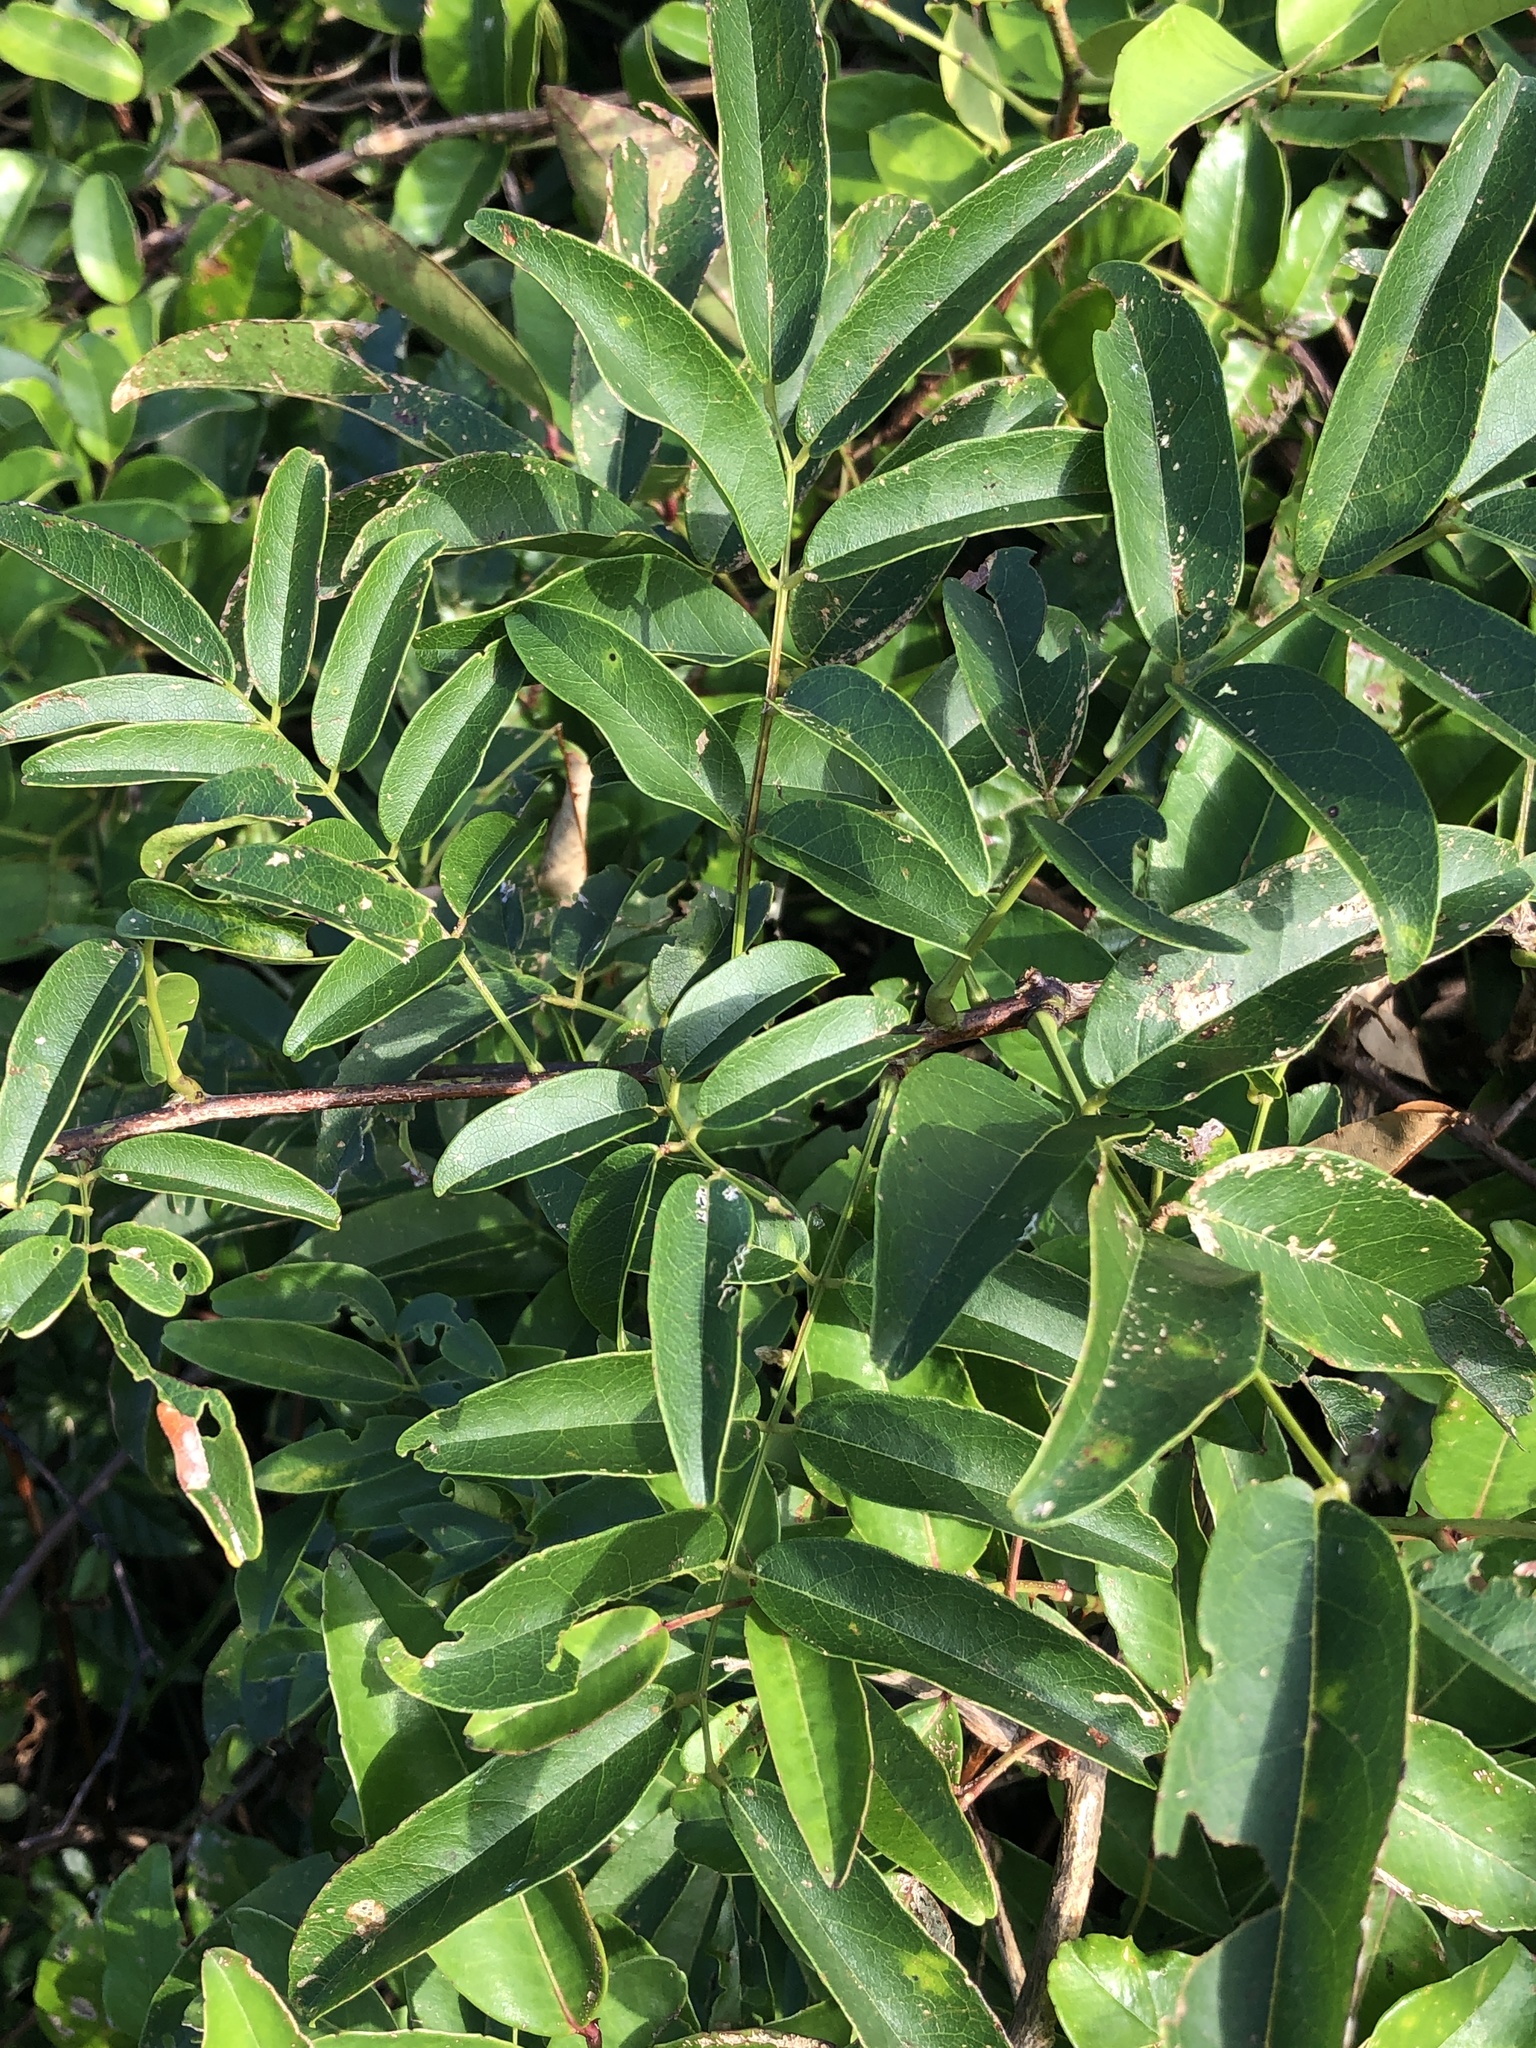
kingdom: Plantae
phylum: Tracheophyta
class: Magnoliopsida
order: Fabales
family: Fabaceae
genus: Wisteriopsis
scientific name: Wisteriopsis reticulata
